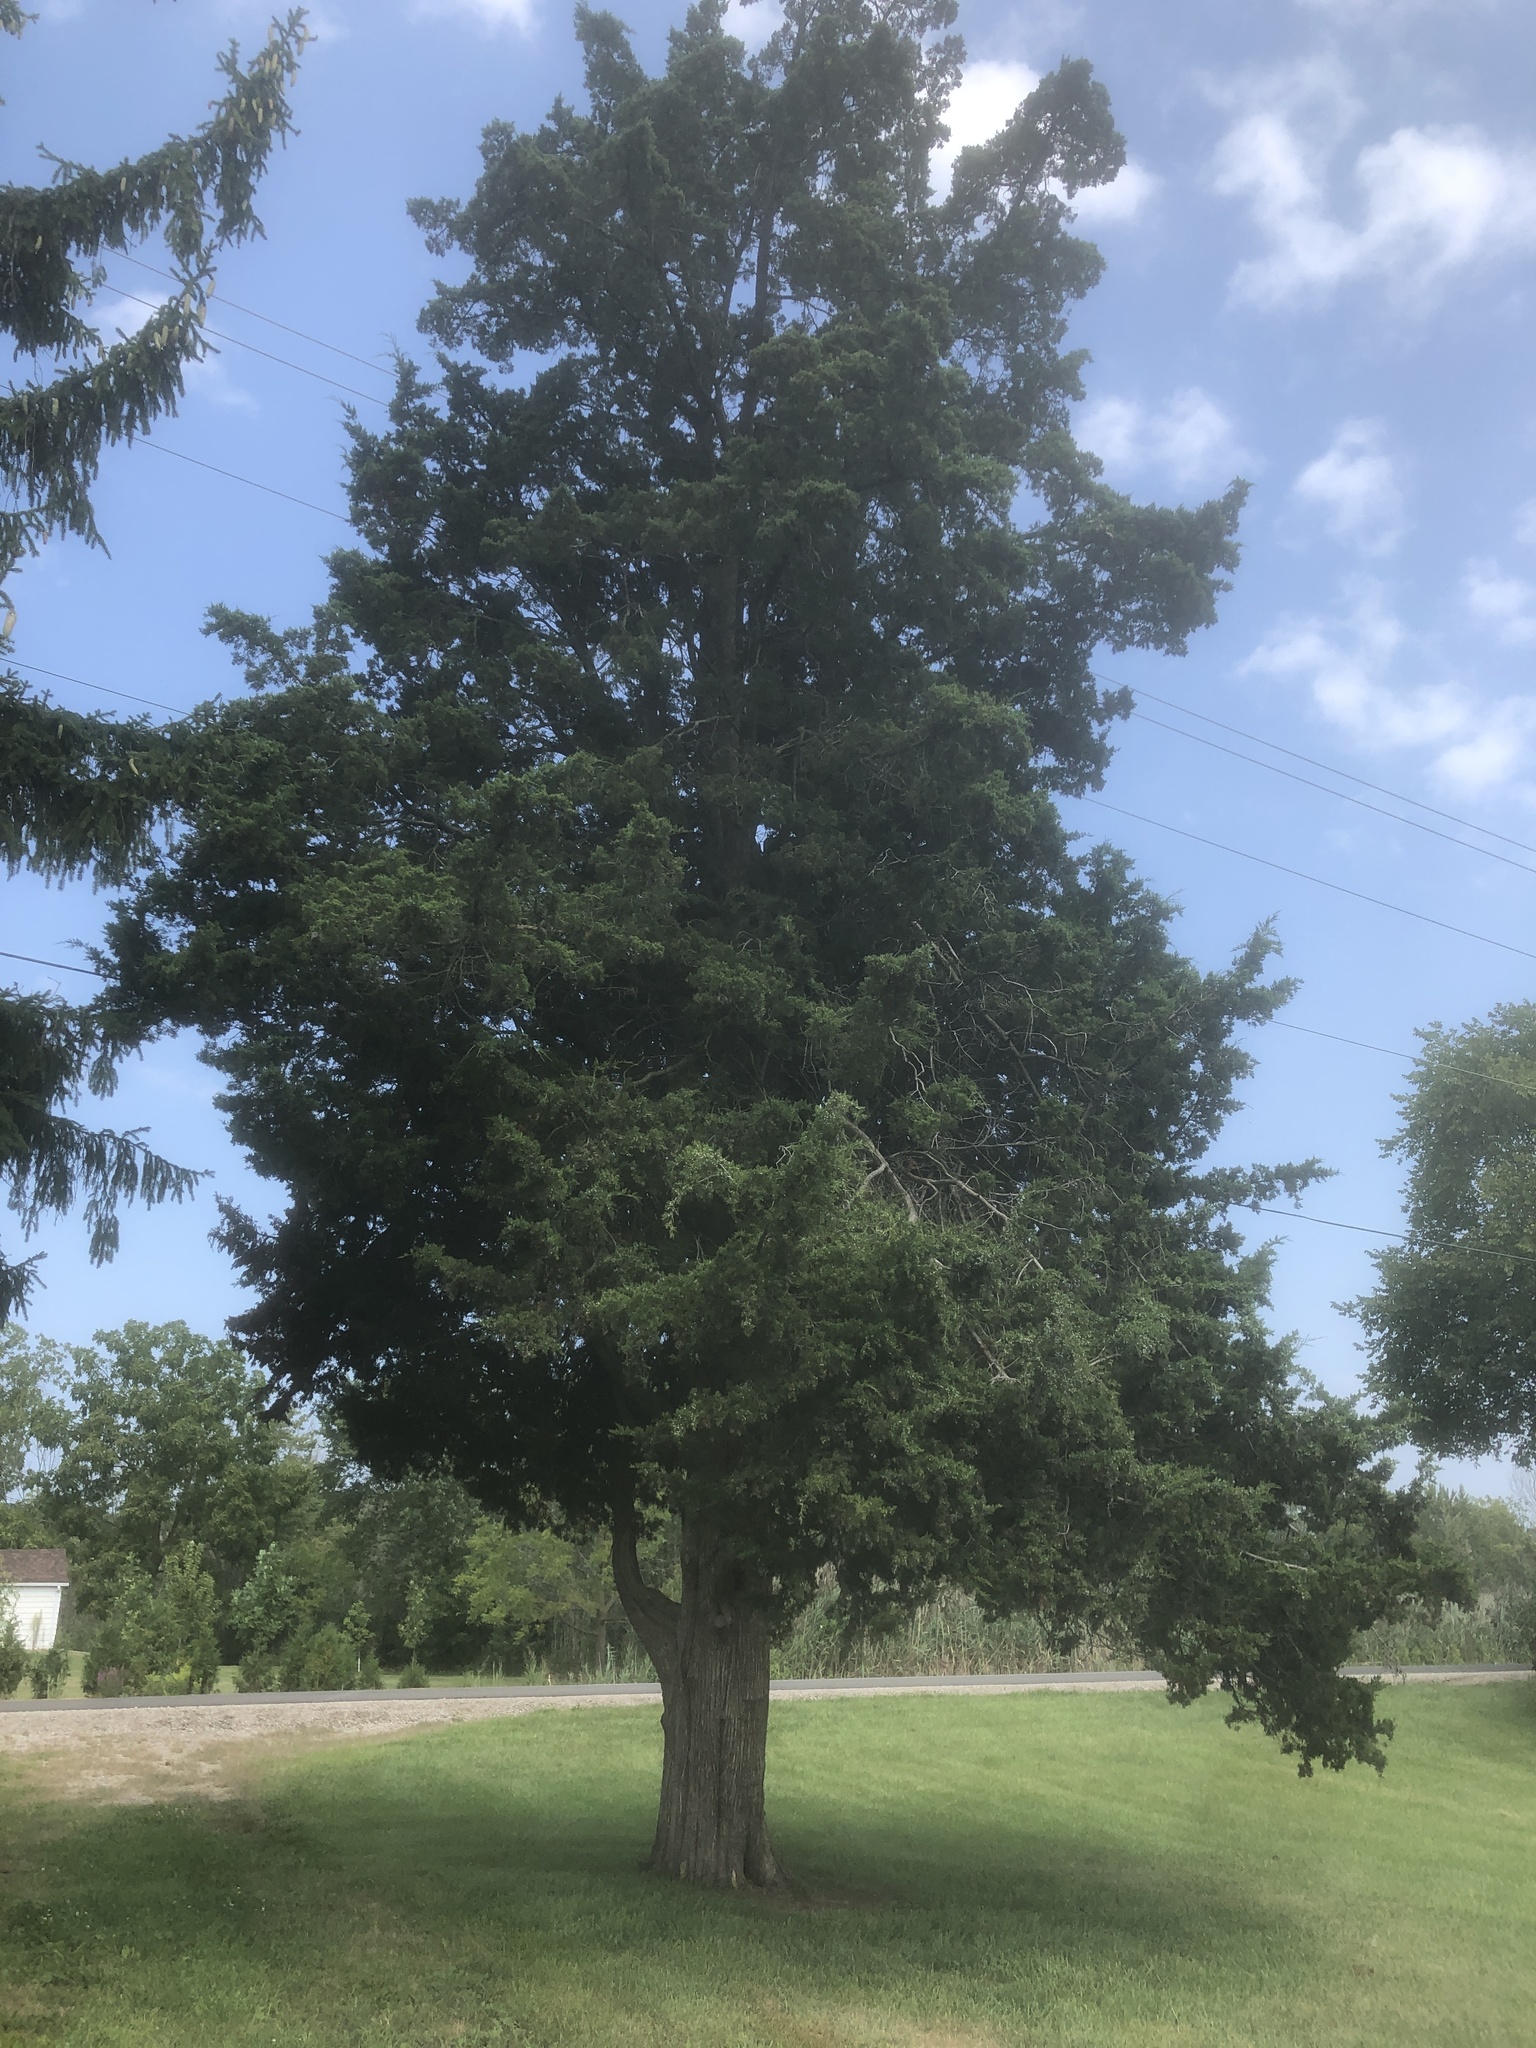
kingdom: Plantae
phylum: Tracheophyta
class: Pinopsida
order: Pinales
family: Cupressaceae
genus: Juniperus
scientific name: Juniperus virginiana
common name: Red juniper
